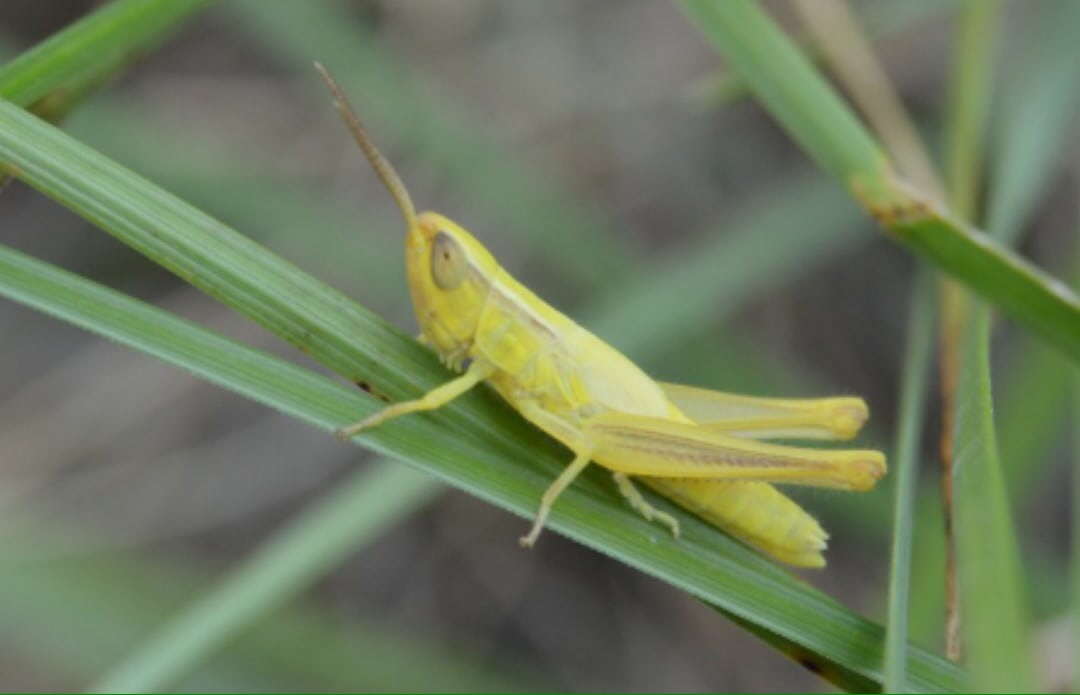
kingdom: Animalia
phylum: Arthropoda
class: Insecta
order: Orthoptera
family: Acrididae
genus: Euchorthippus
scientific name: Euchorthippus pulvinatus
